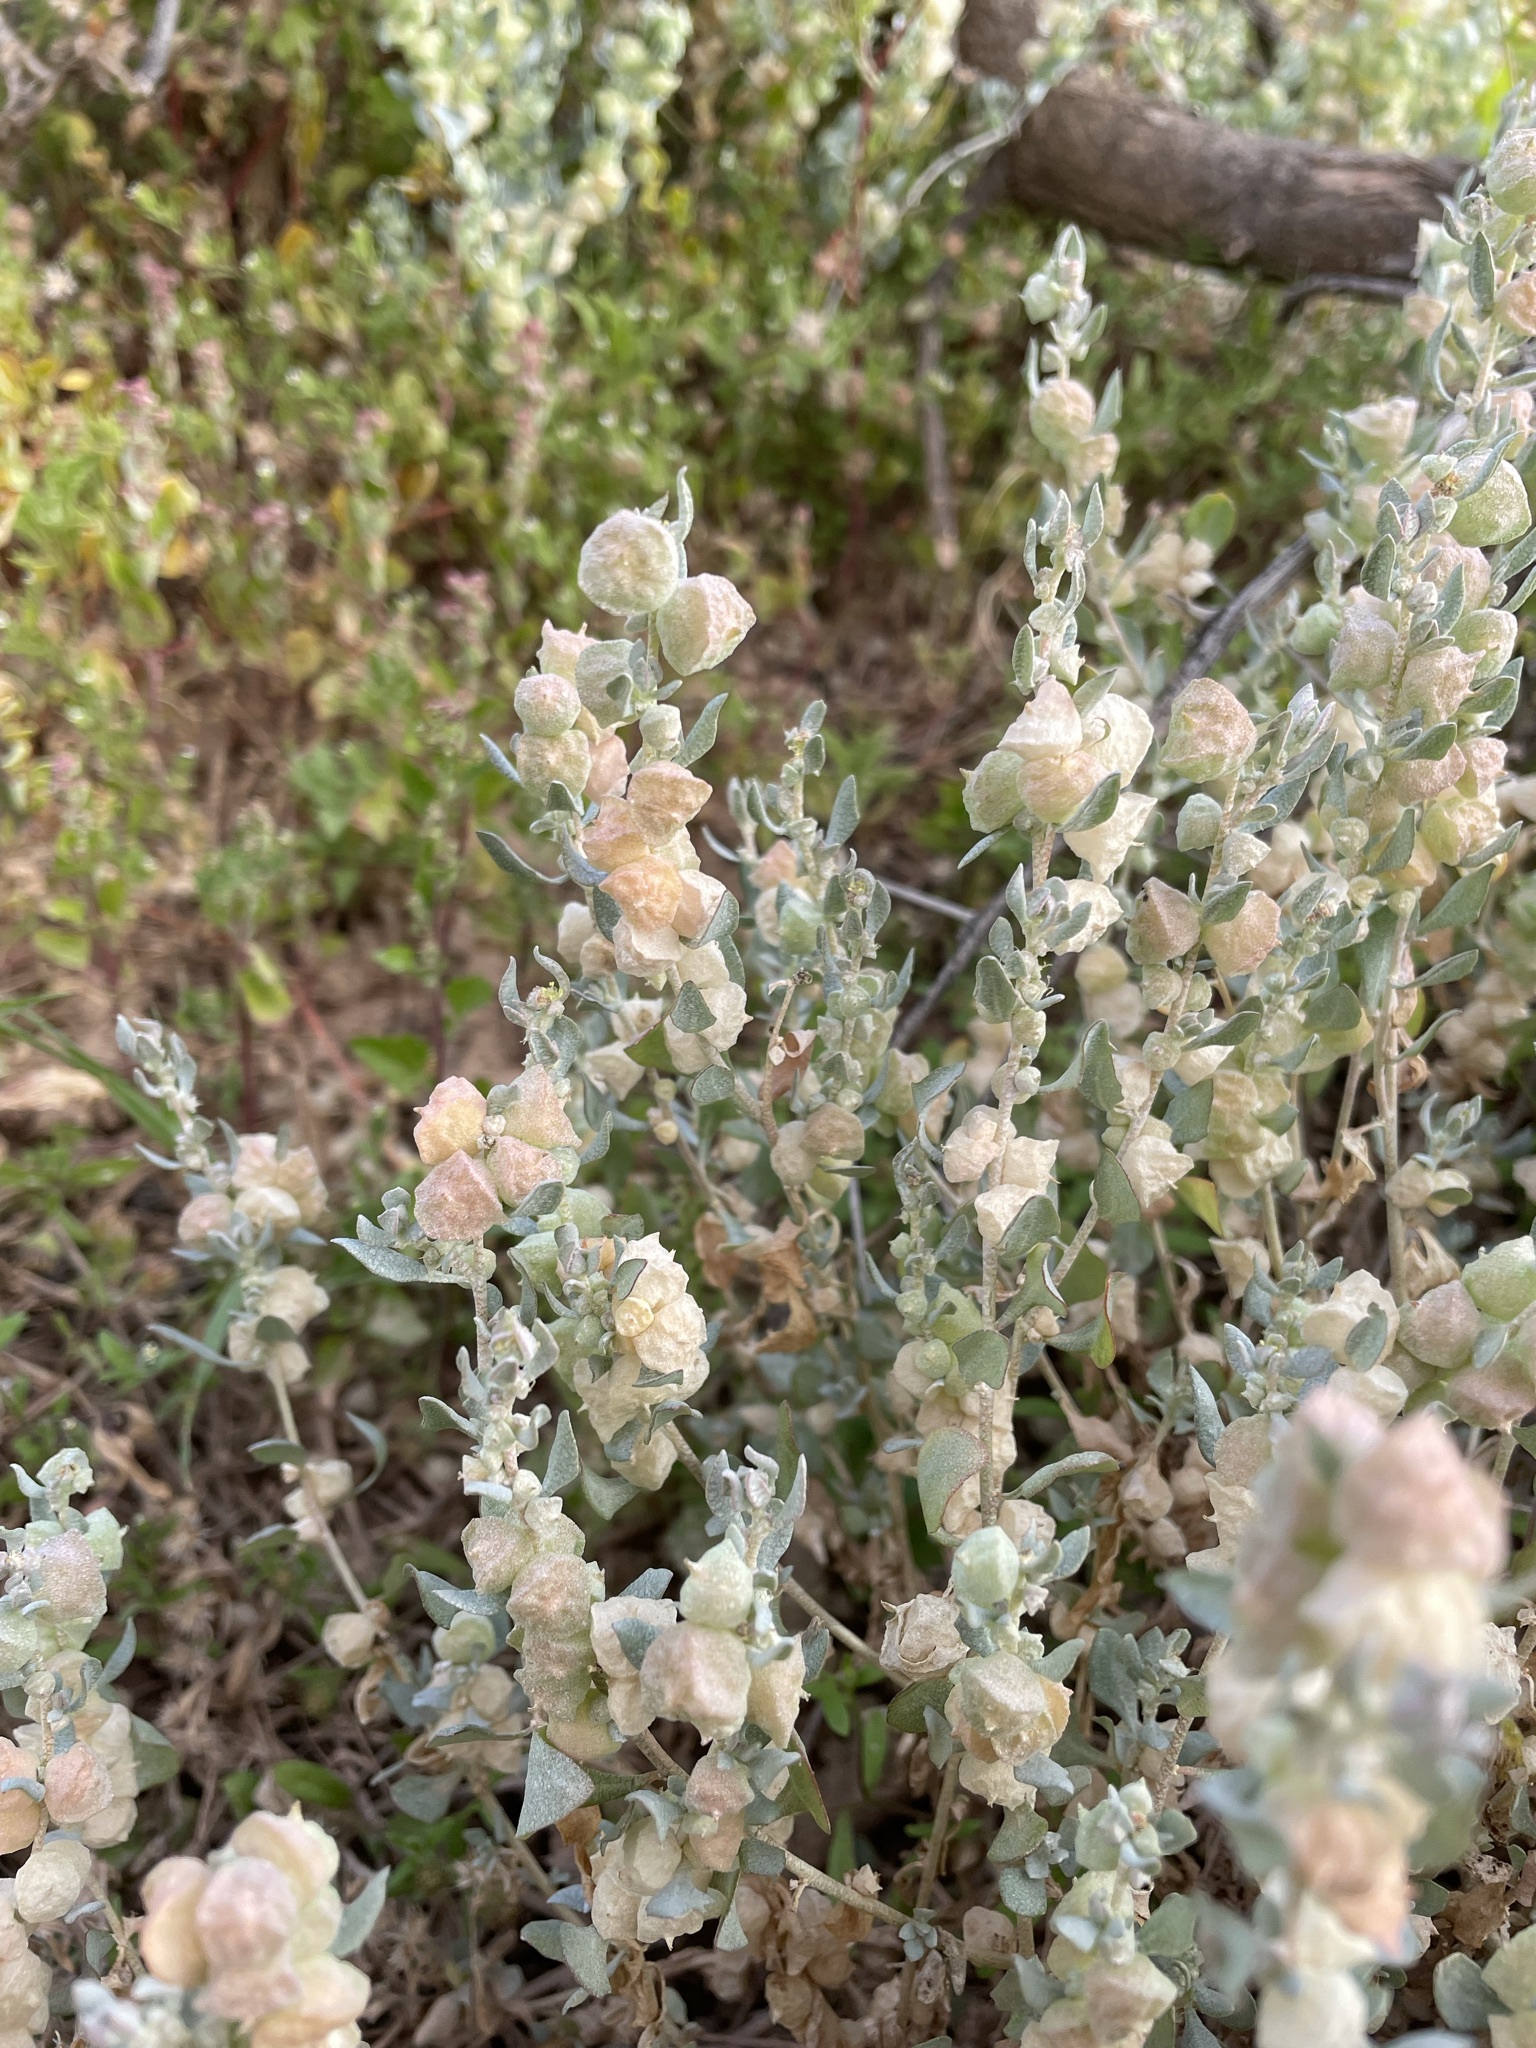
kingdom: Plantae
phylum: Tracheophyta
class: Magnoliopsida
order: Caryophyllales
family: Amaranthaceae
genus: Atriplex
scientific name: Atriplex lindleyi
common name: Lindley's saltbush
